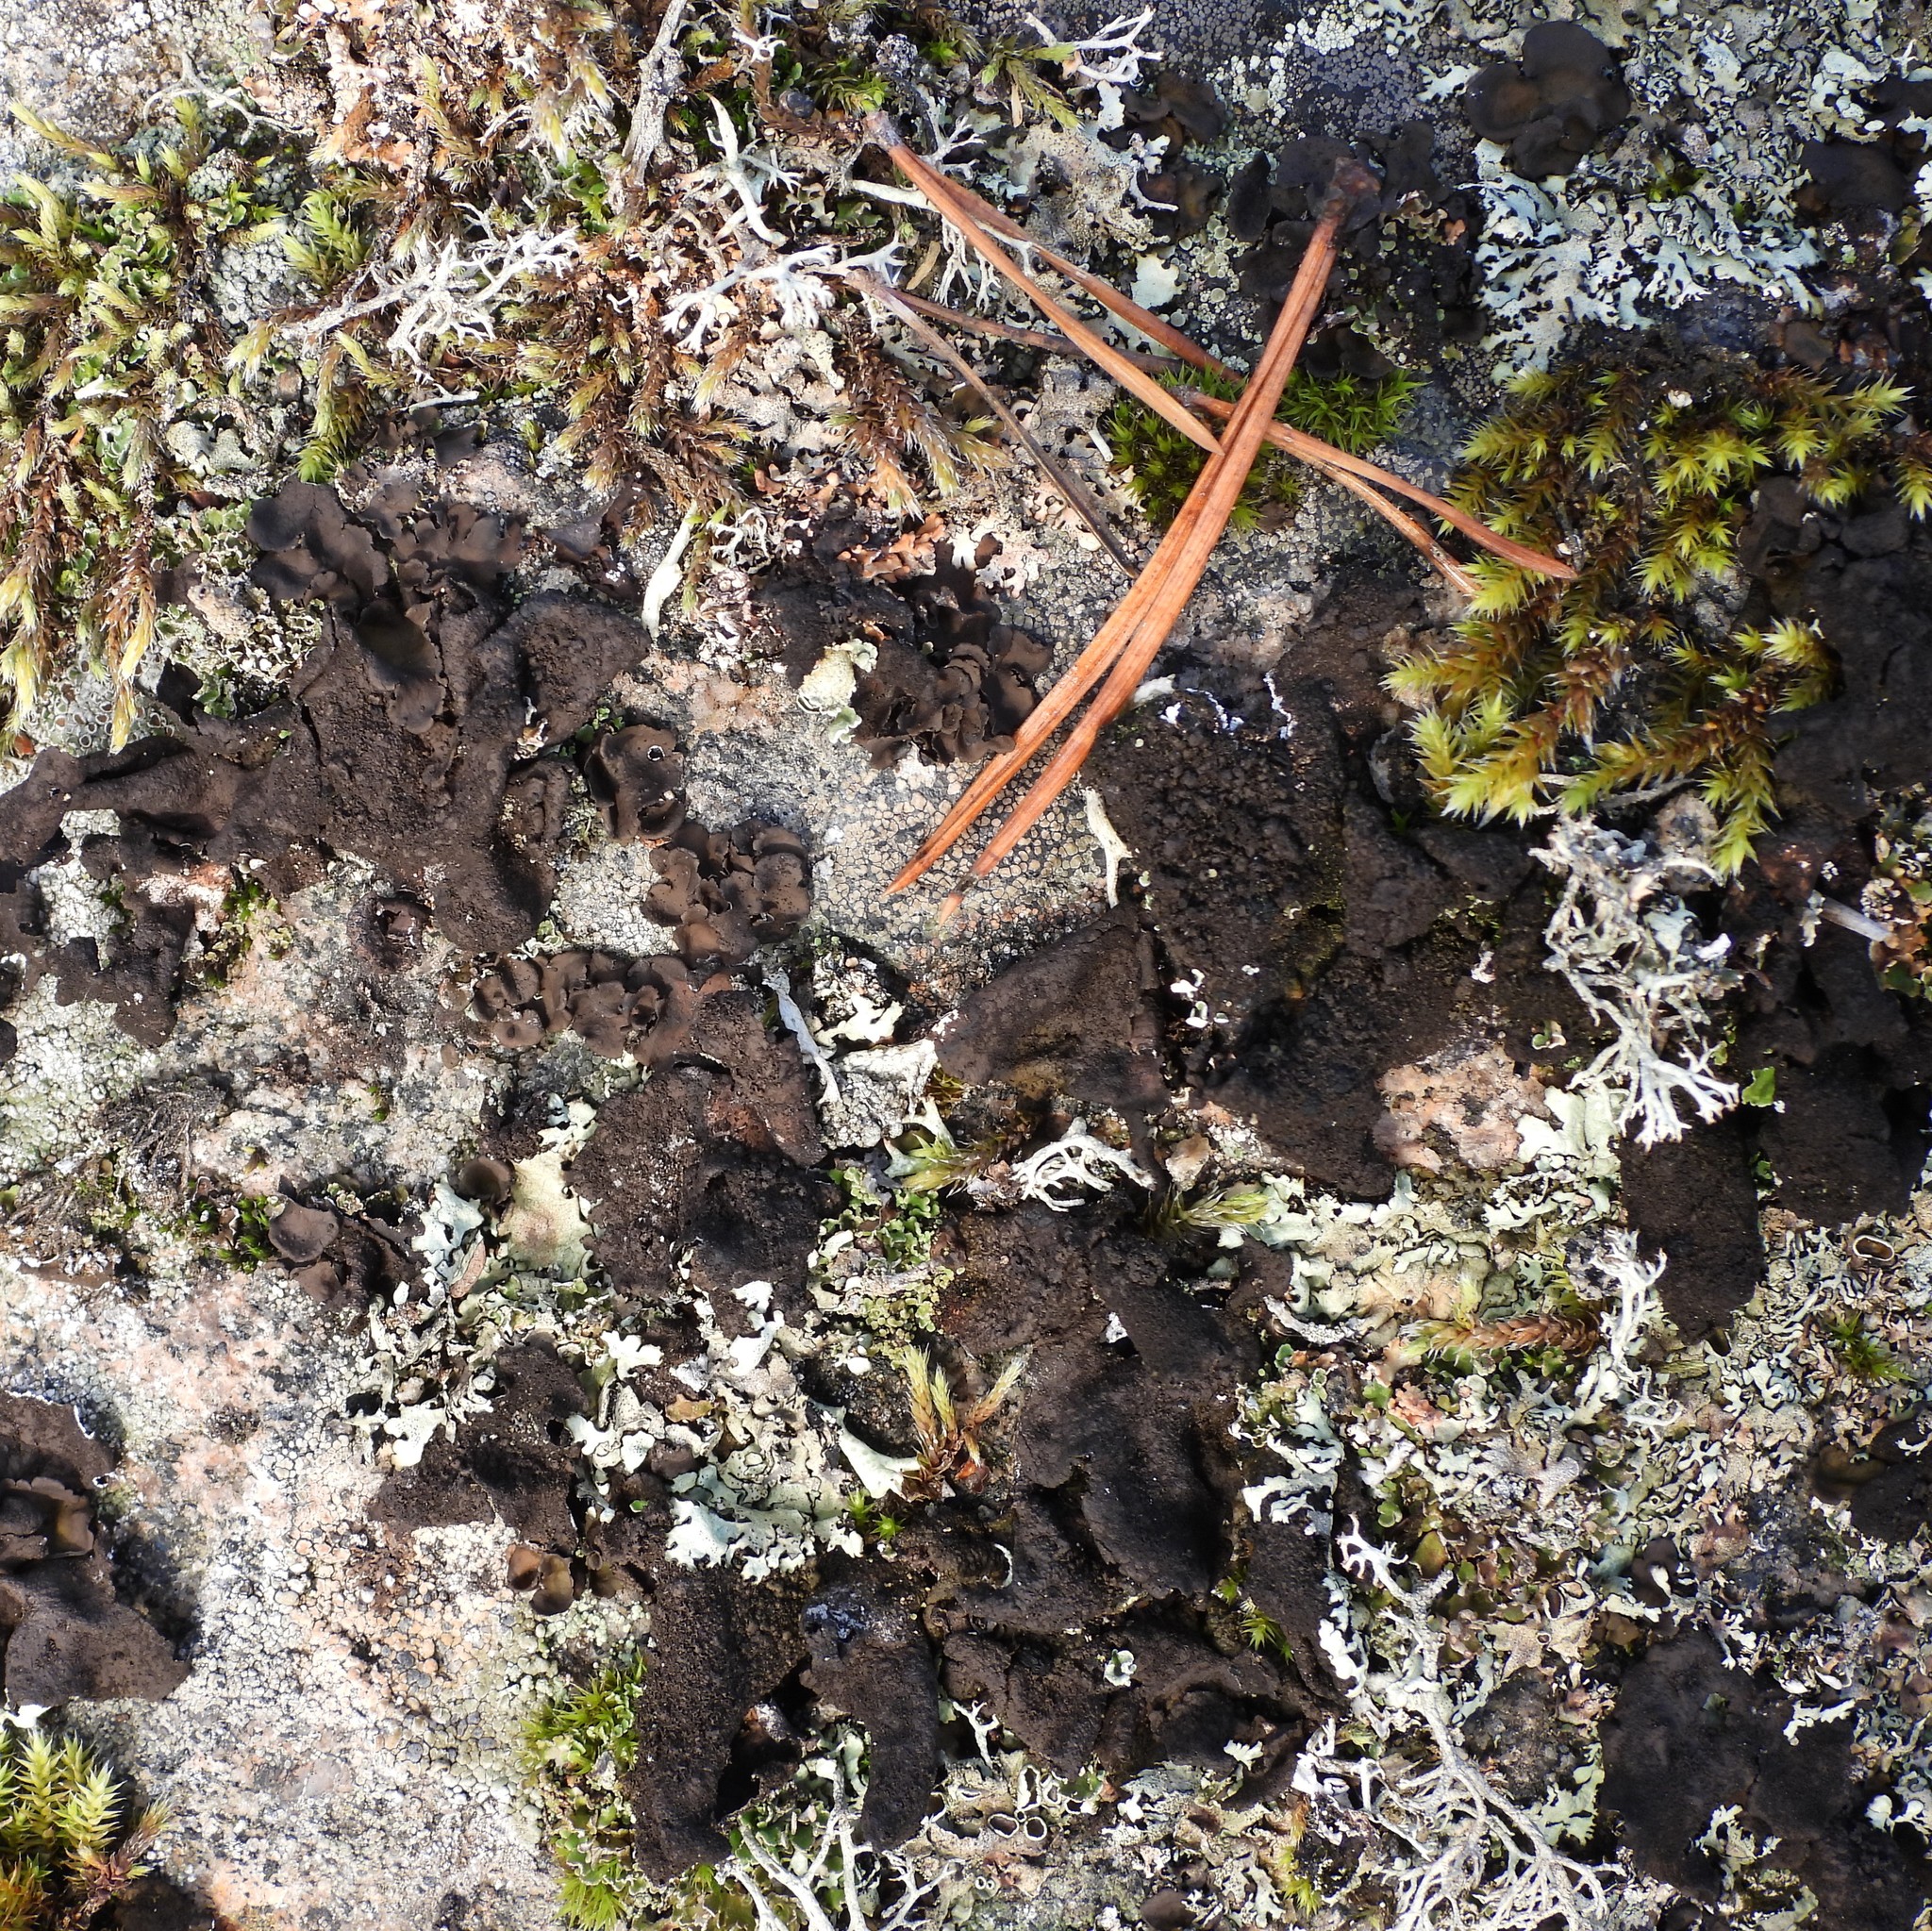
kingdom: Fungi
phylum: Ascomycota
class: Lecanoromycetes
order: Umbilicariales
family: Umbilicariaceae
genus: Umbilicaria
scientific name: Umbilicaria deusta
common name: Peppered rock tripe
